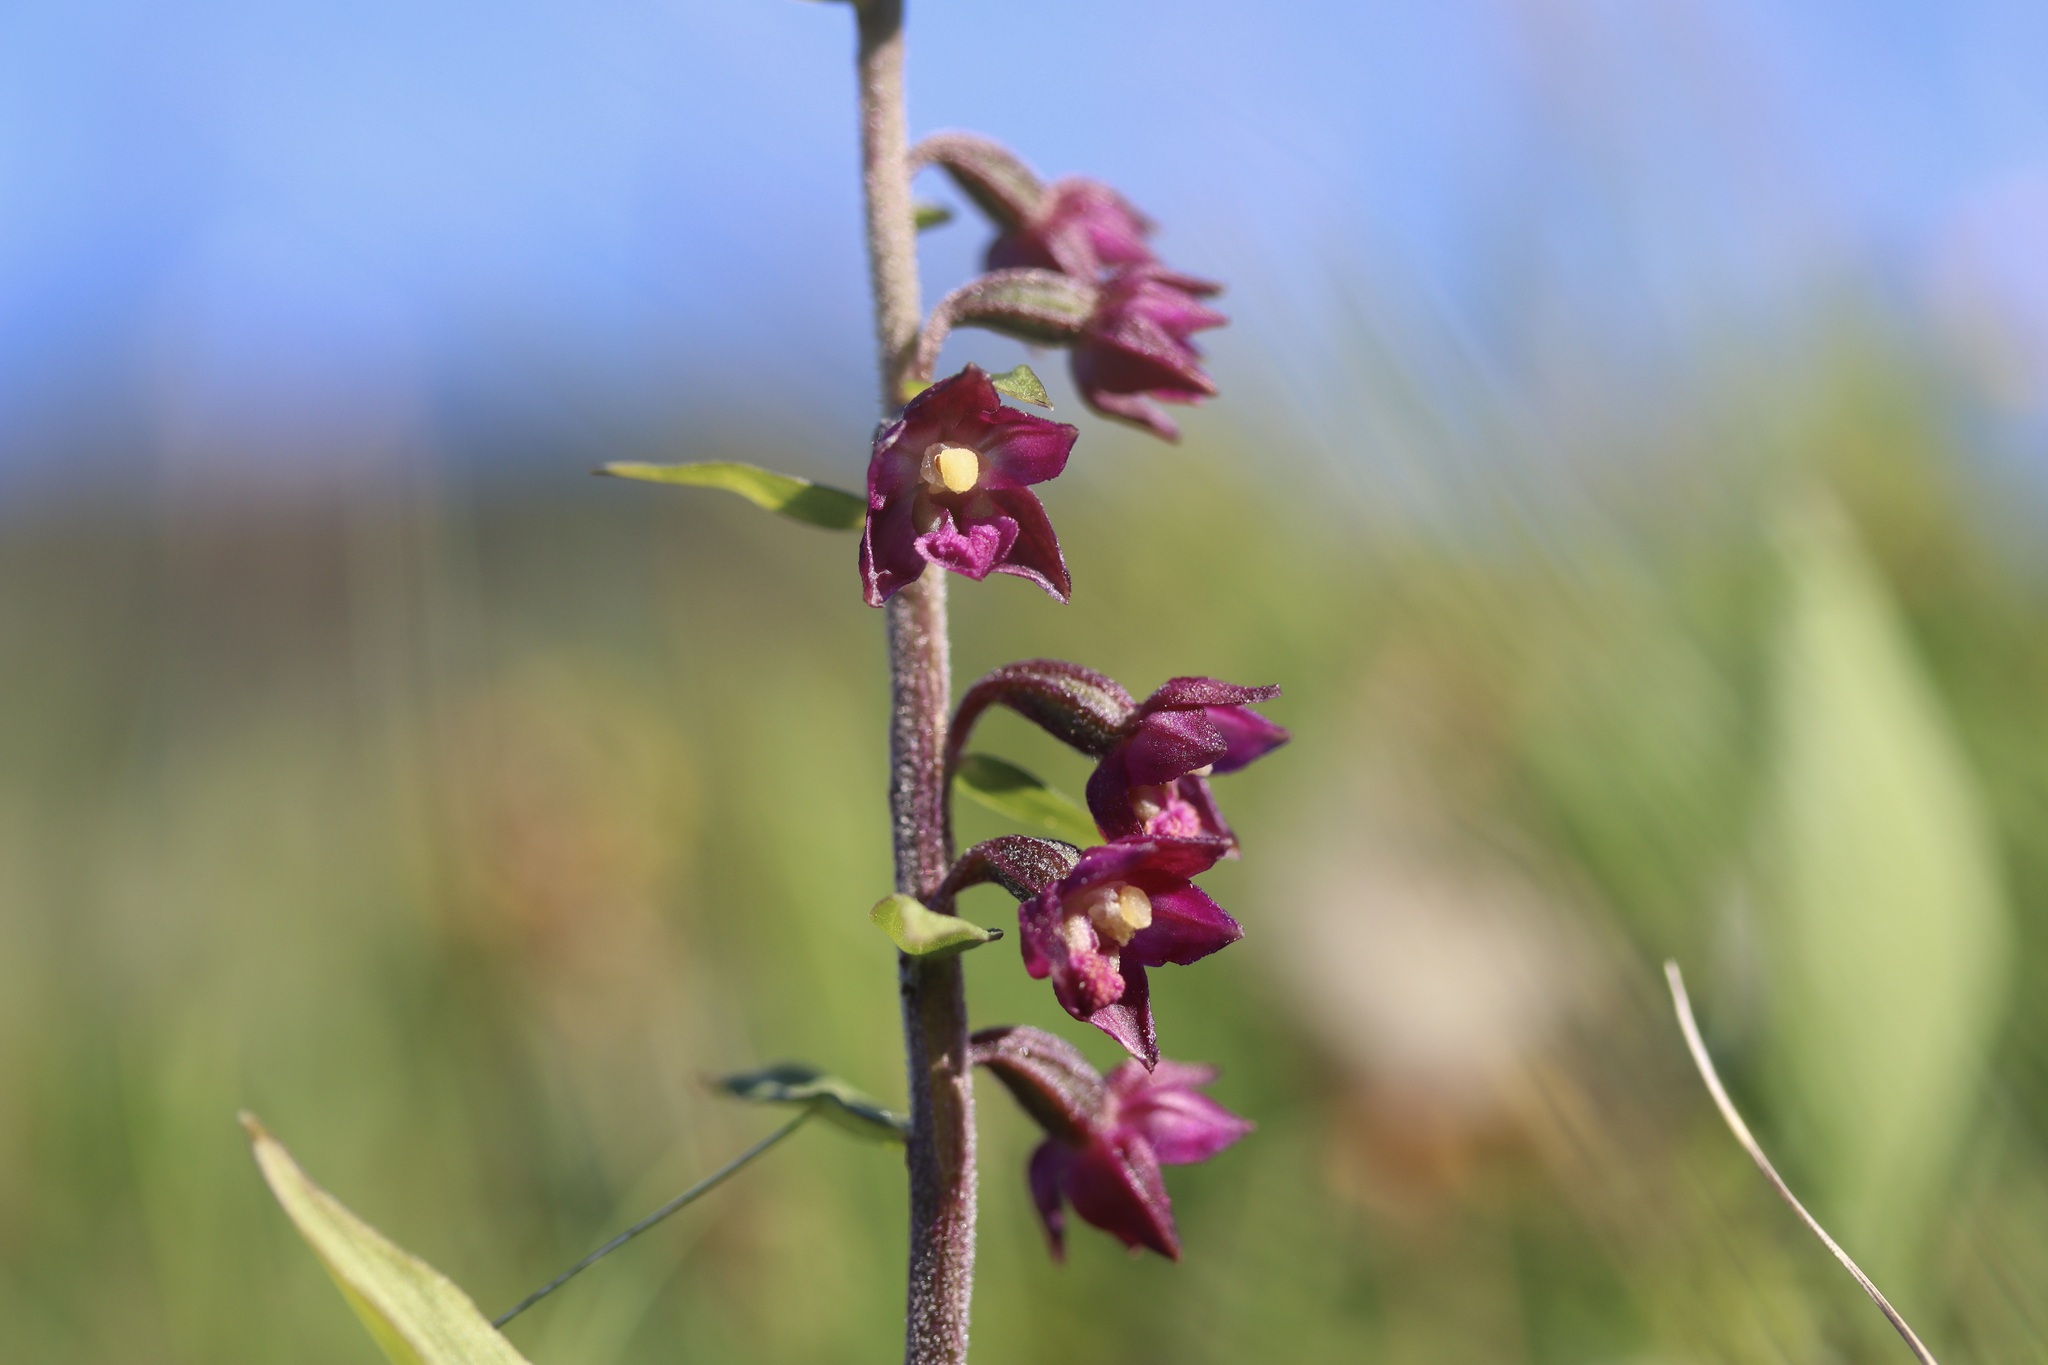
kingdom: Plantae
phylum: Tracheophyta
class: Liliopsida
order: Asparagales
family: Orchidaceae
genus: Epipactis
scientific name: Epipactis atrorubens
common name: Dark-red helleborine
